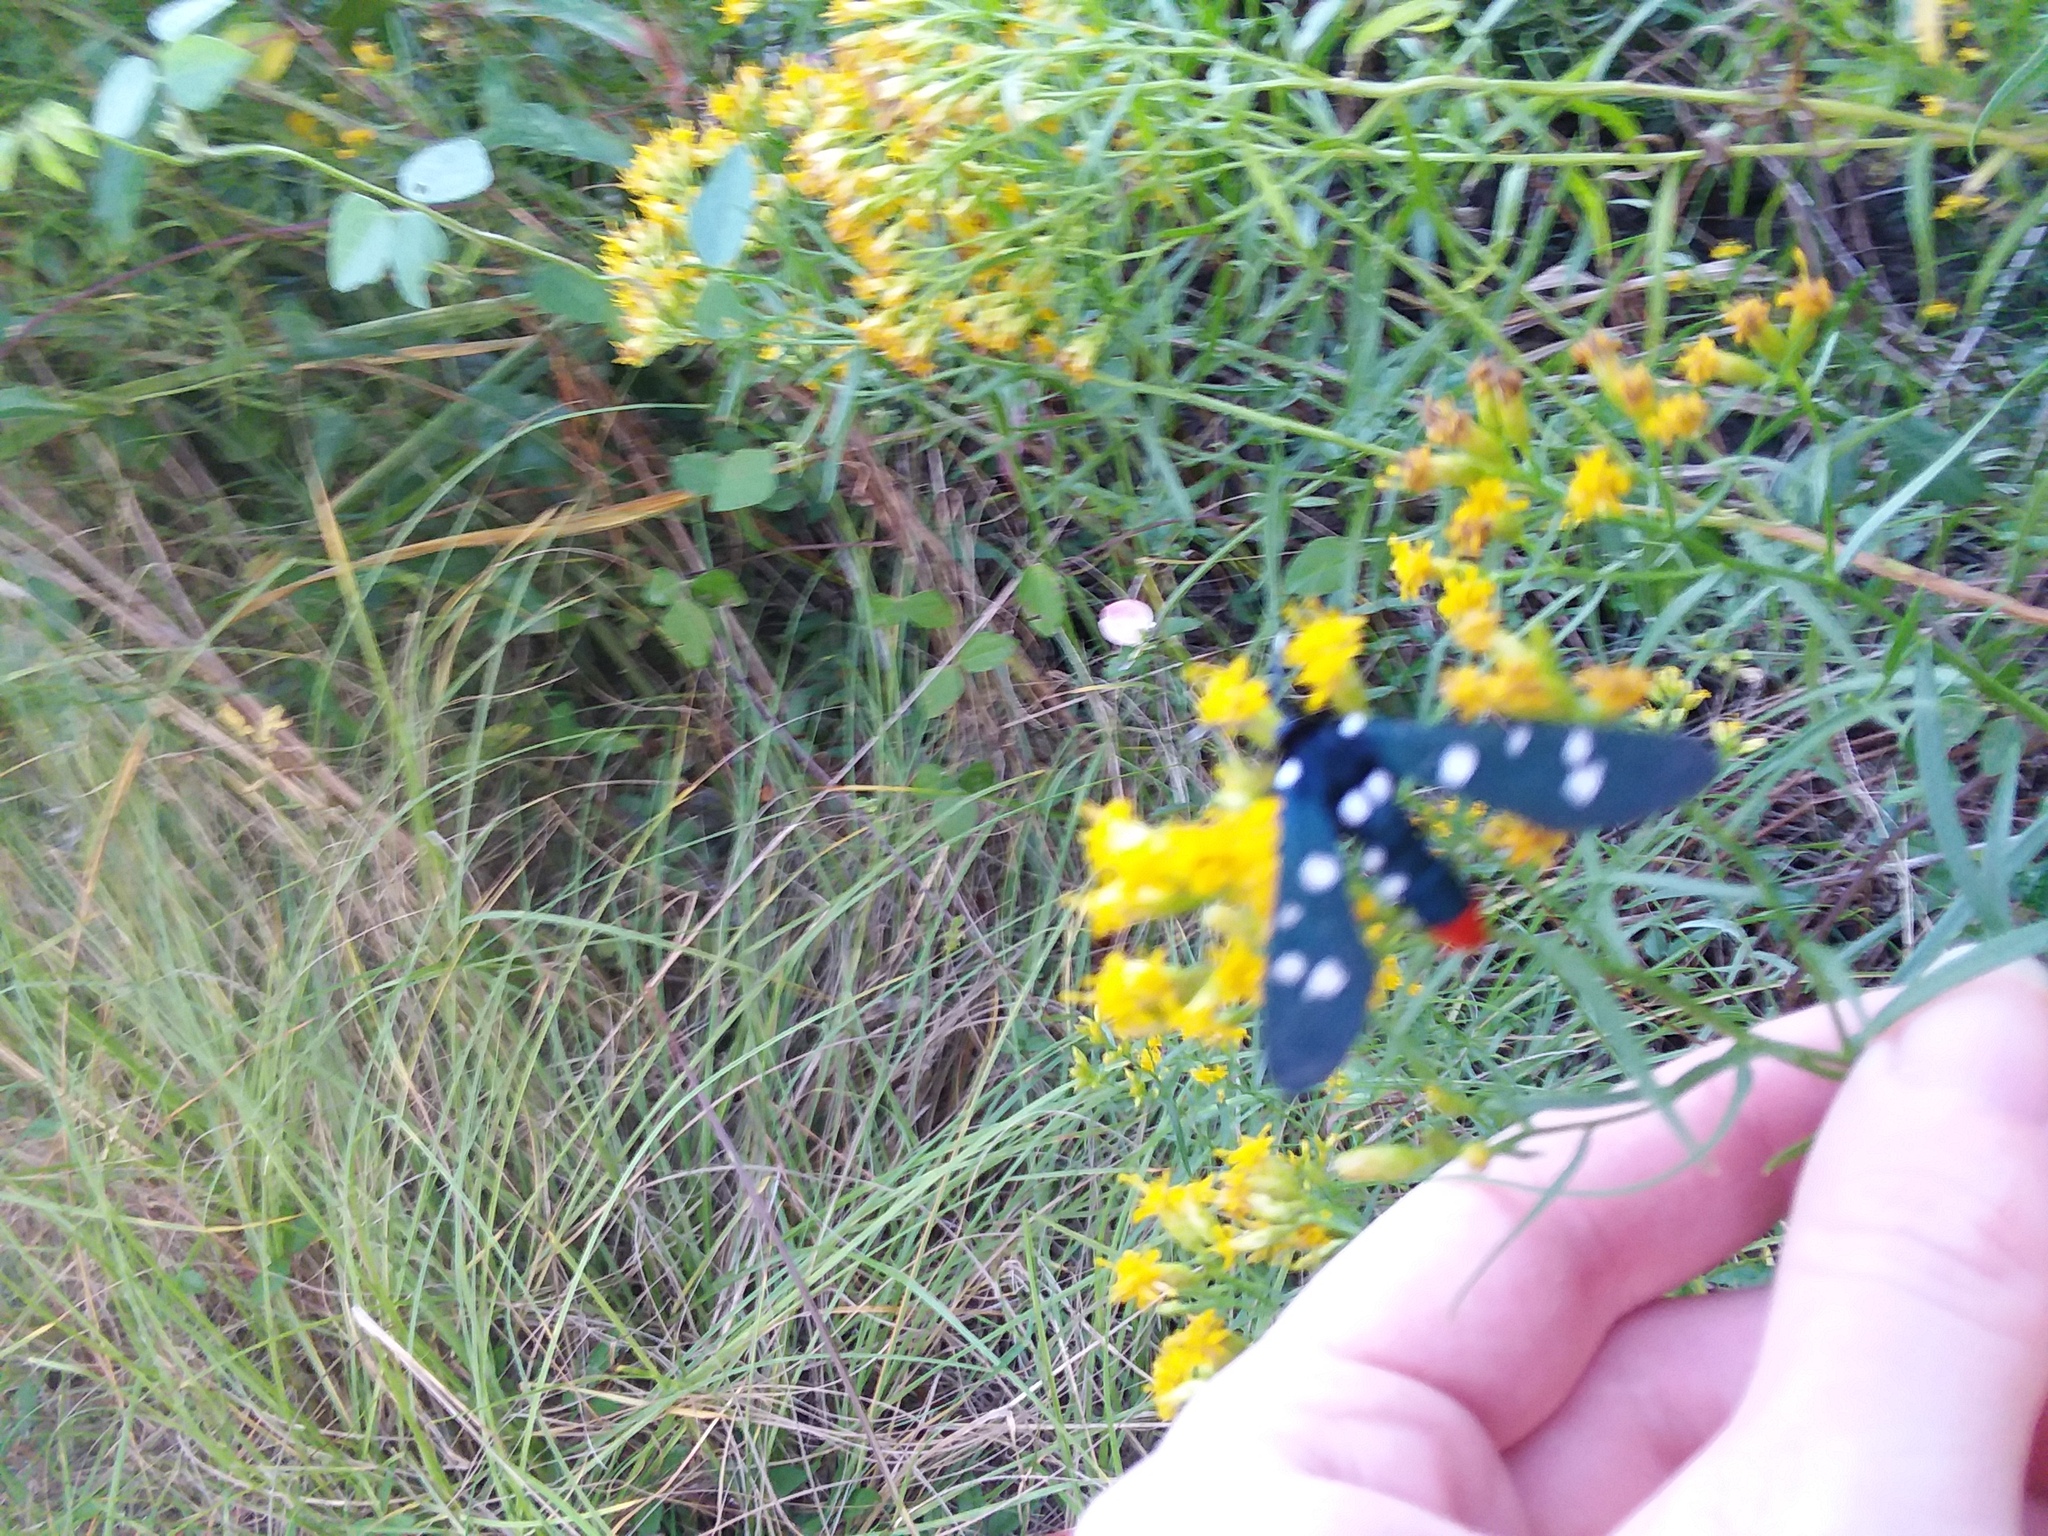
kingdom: Animalia
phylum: Arthropoda
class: Insecta
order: Lepidoptera
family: Erebidae
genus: Syntomeida
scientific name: Syntomeida epilais
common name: Polka-dot wasp moth
